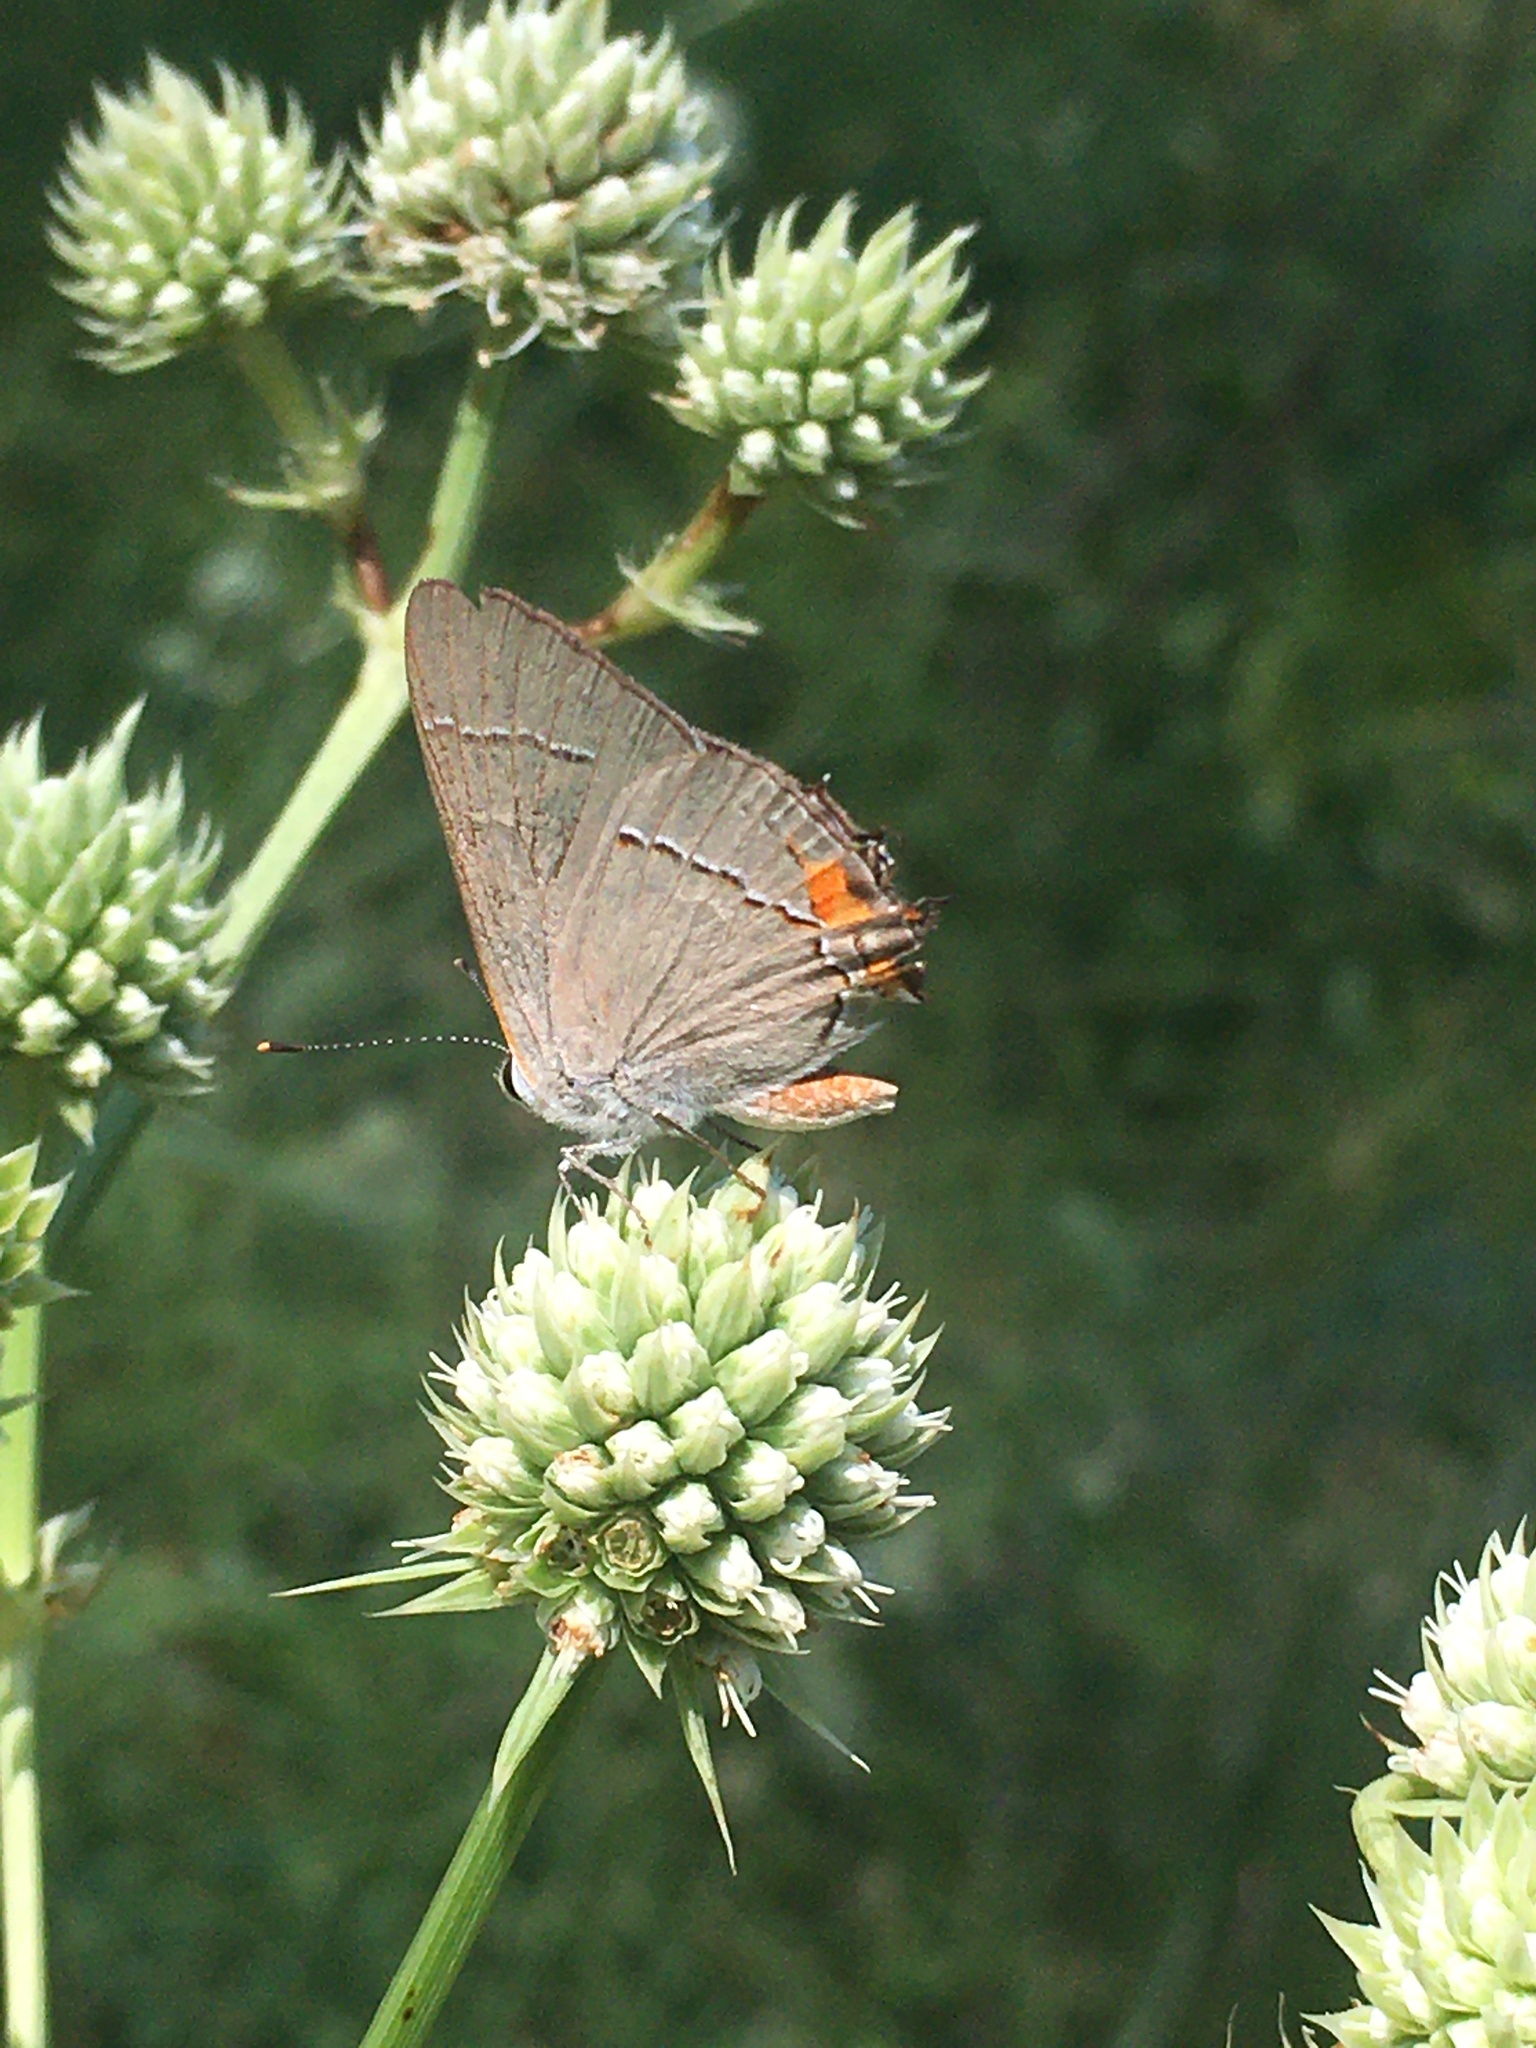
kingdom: Animalia
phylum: Arthropoda
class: Insecta
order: Lepidoptera
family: Lycaenidae
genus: Strymon
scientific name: Strymon melinus
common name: Gray hairstreak
